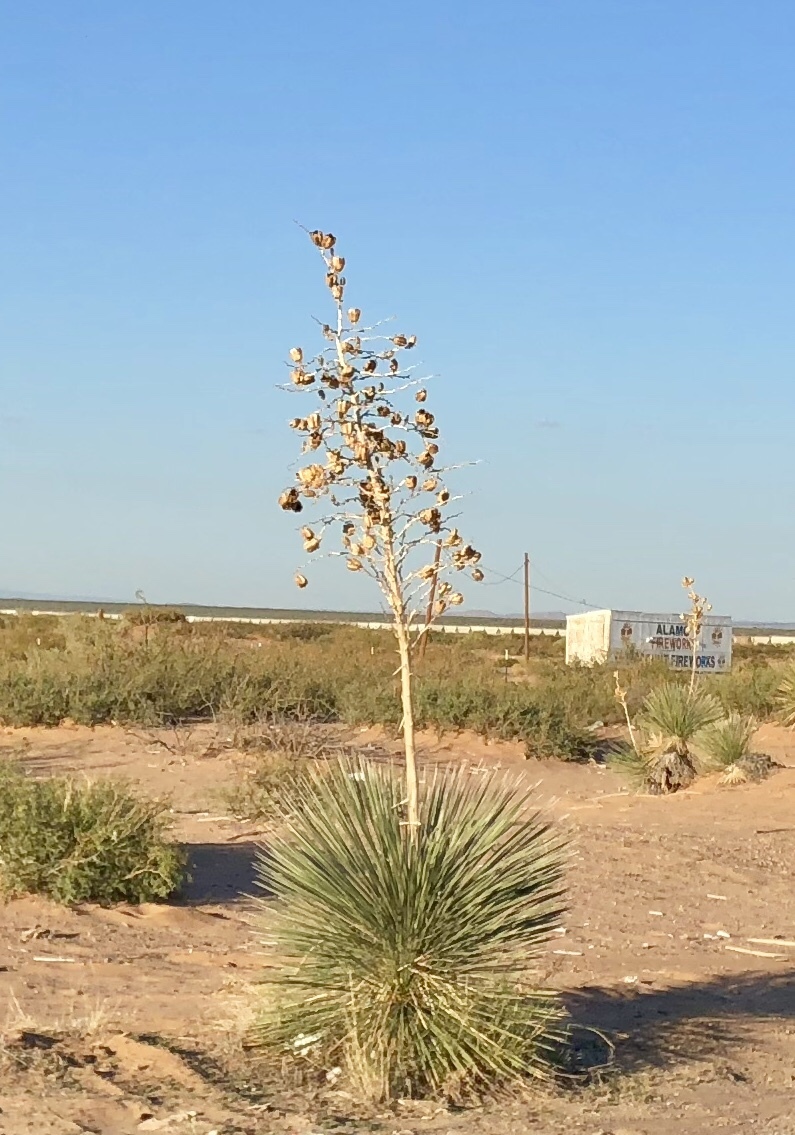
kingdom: Plantae
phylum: Tracheophyta
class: Liliopsida
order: Asparagales
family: Asparagaceae
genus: Yucca
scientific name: Yucca elata
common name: Palmella
